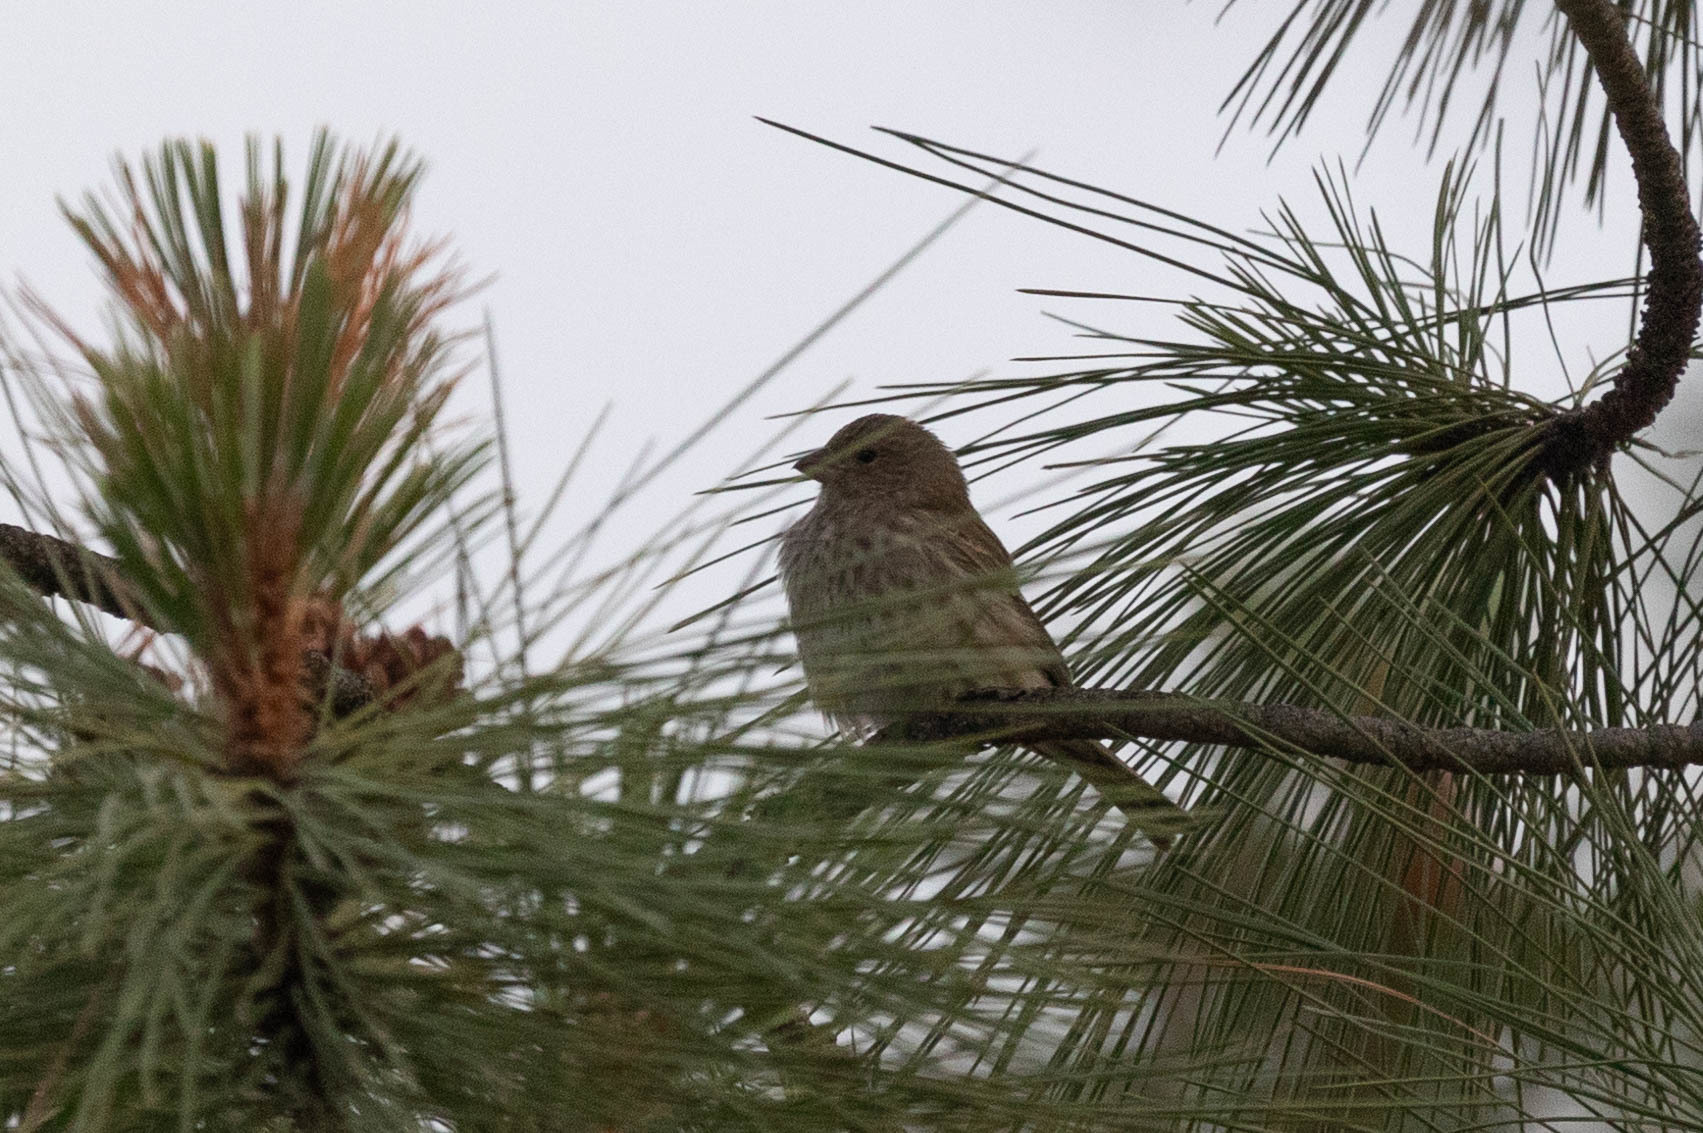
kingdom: Animalia
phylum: Chordata
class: Aves
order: Passeriformes
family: Fringillidae
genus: Haemorhous
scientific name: Haemorhous mexicanus
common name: House finch
